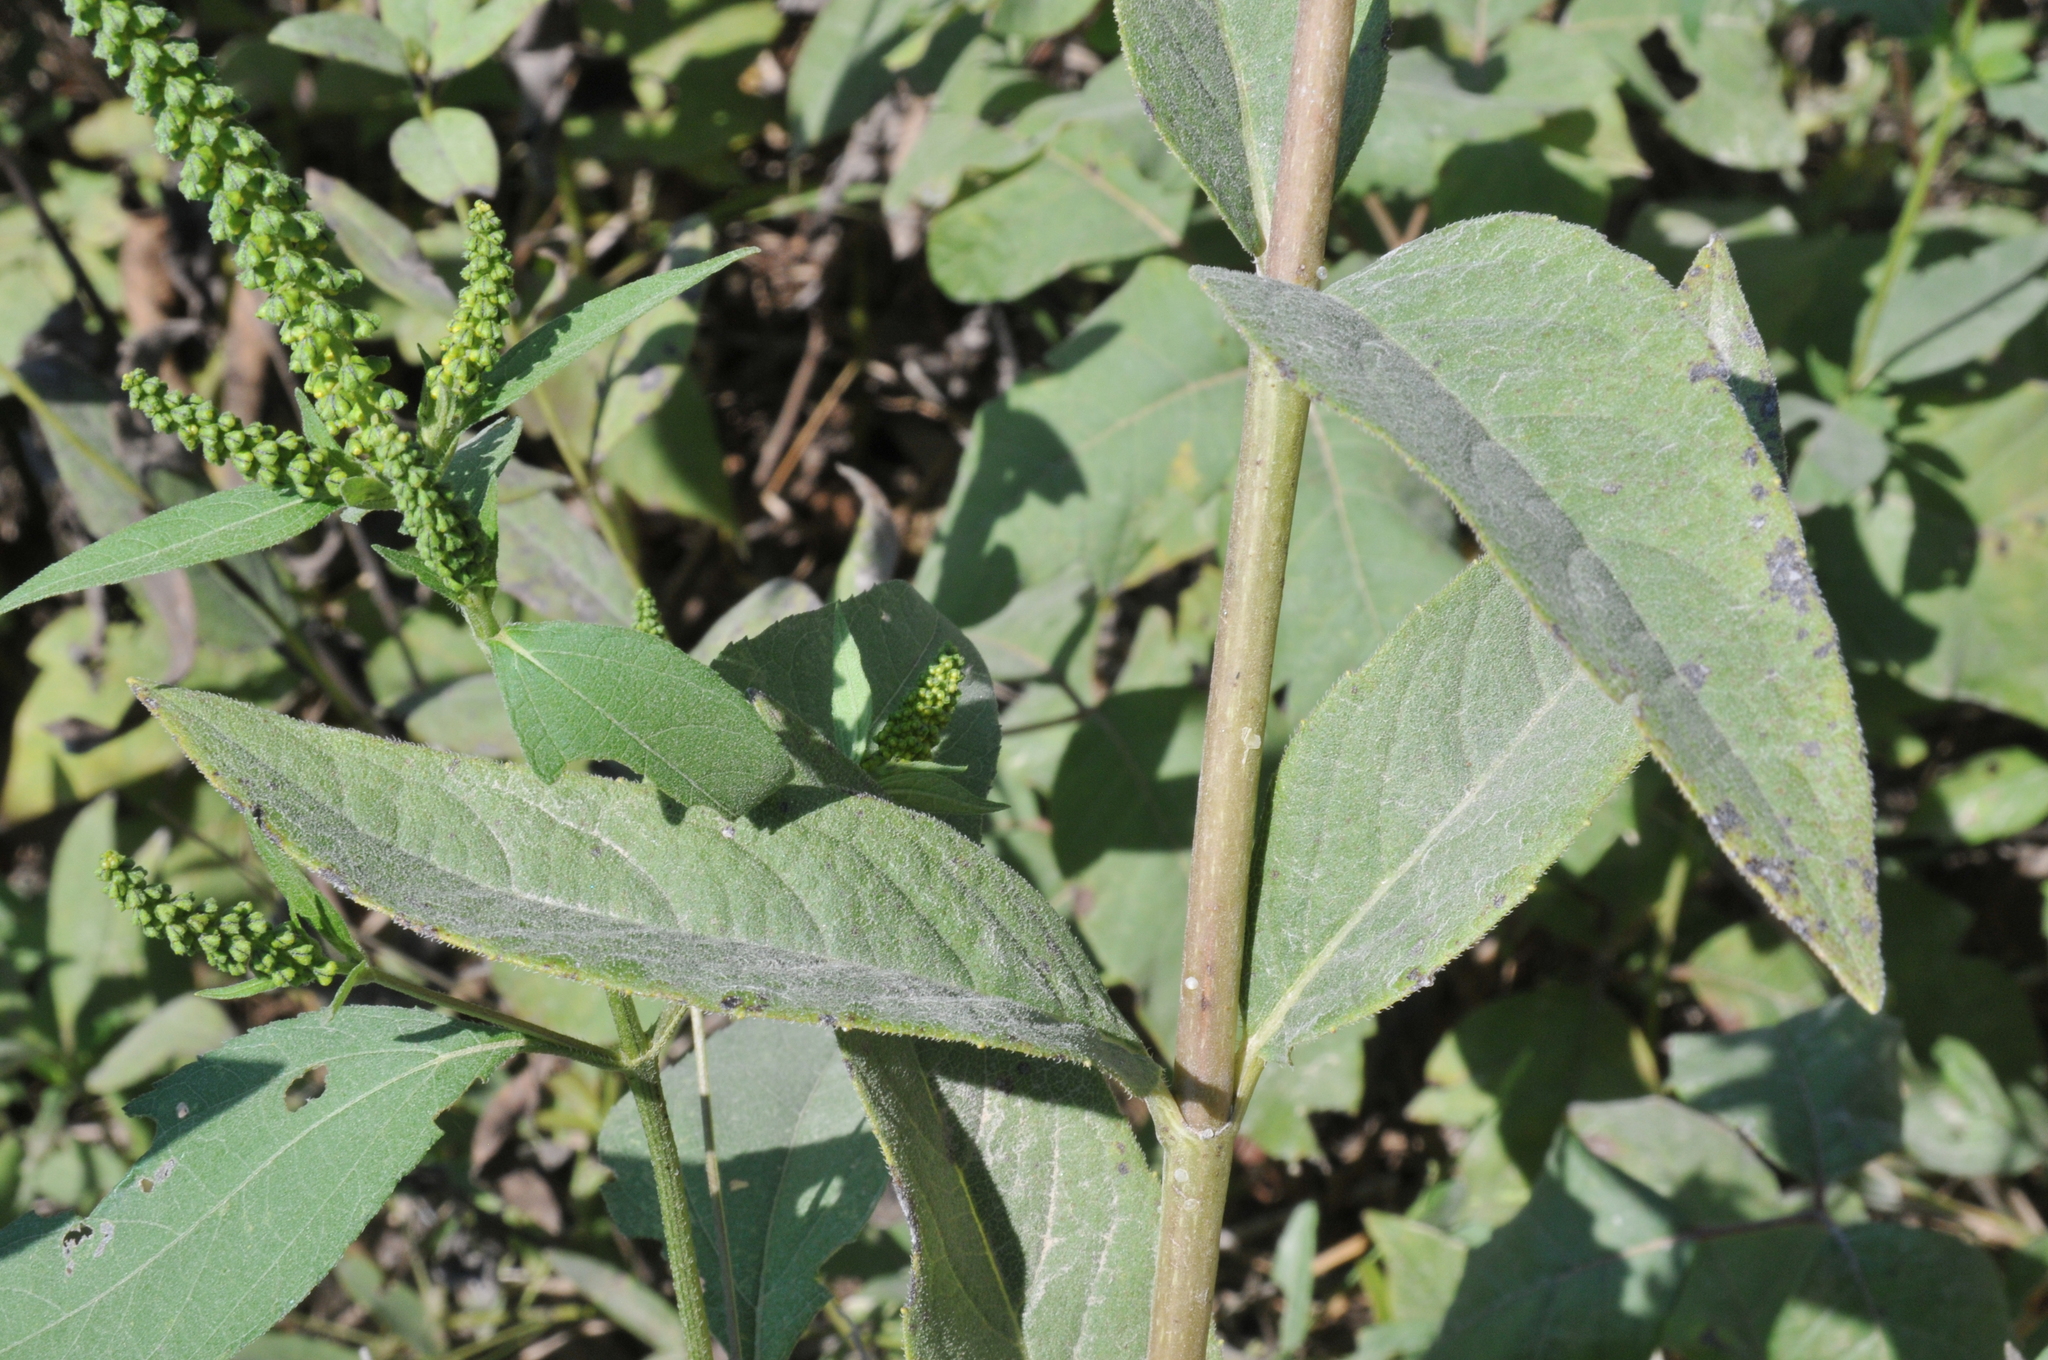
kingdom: Plantae
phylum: Tracheophyta
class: Magnoliopsida
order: Asterales
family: Asteraceae
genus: Silphium
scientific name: Silphium asteriscus
